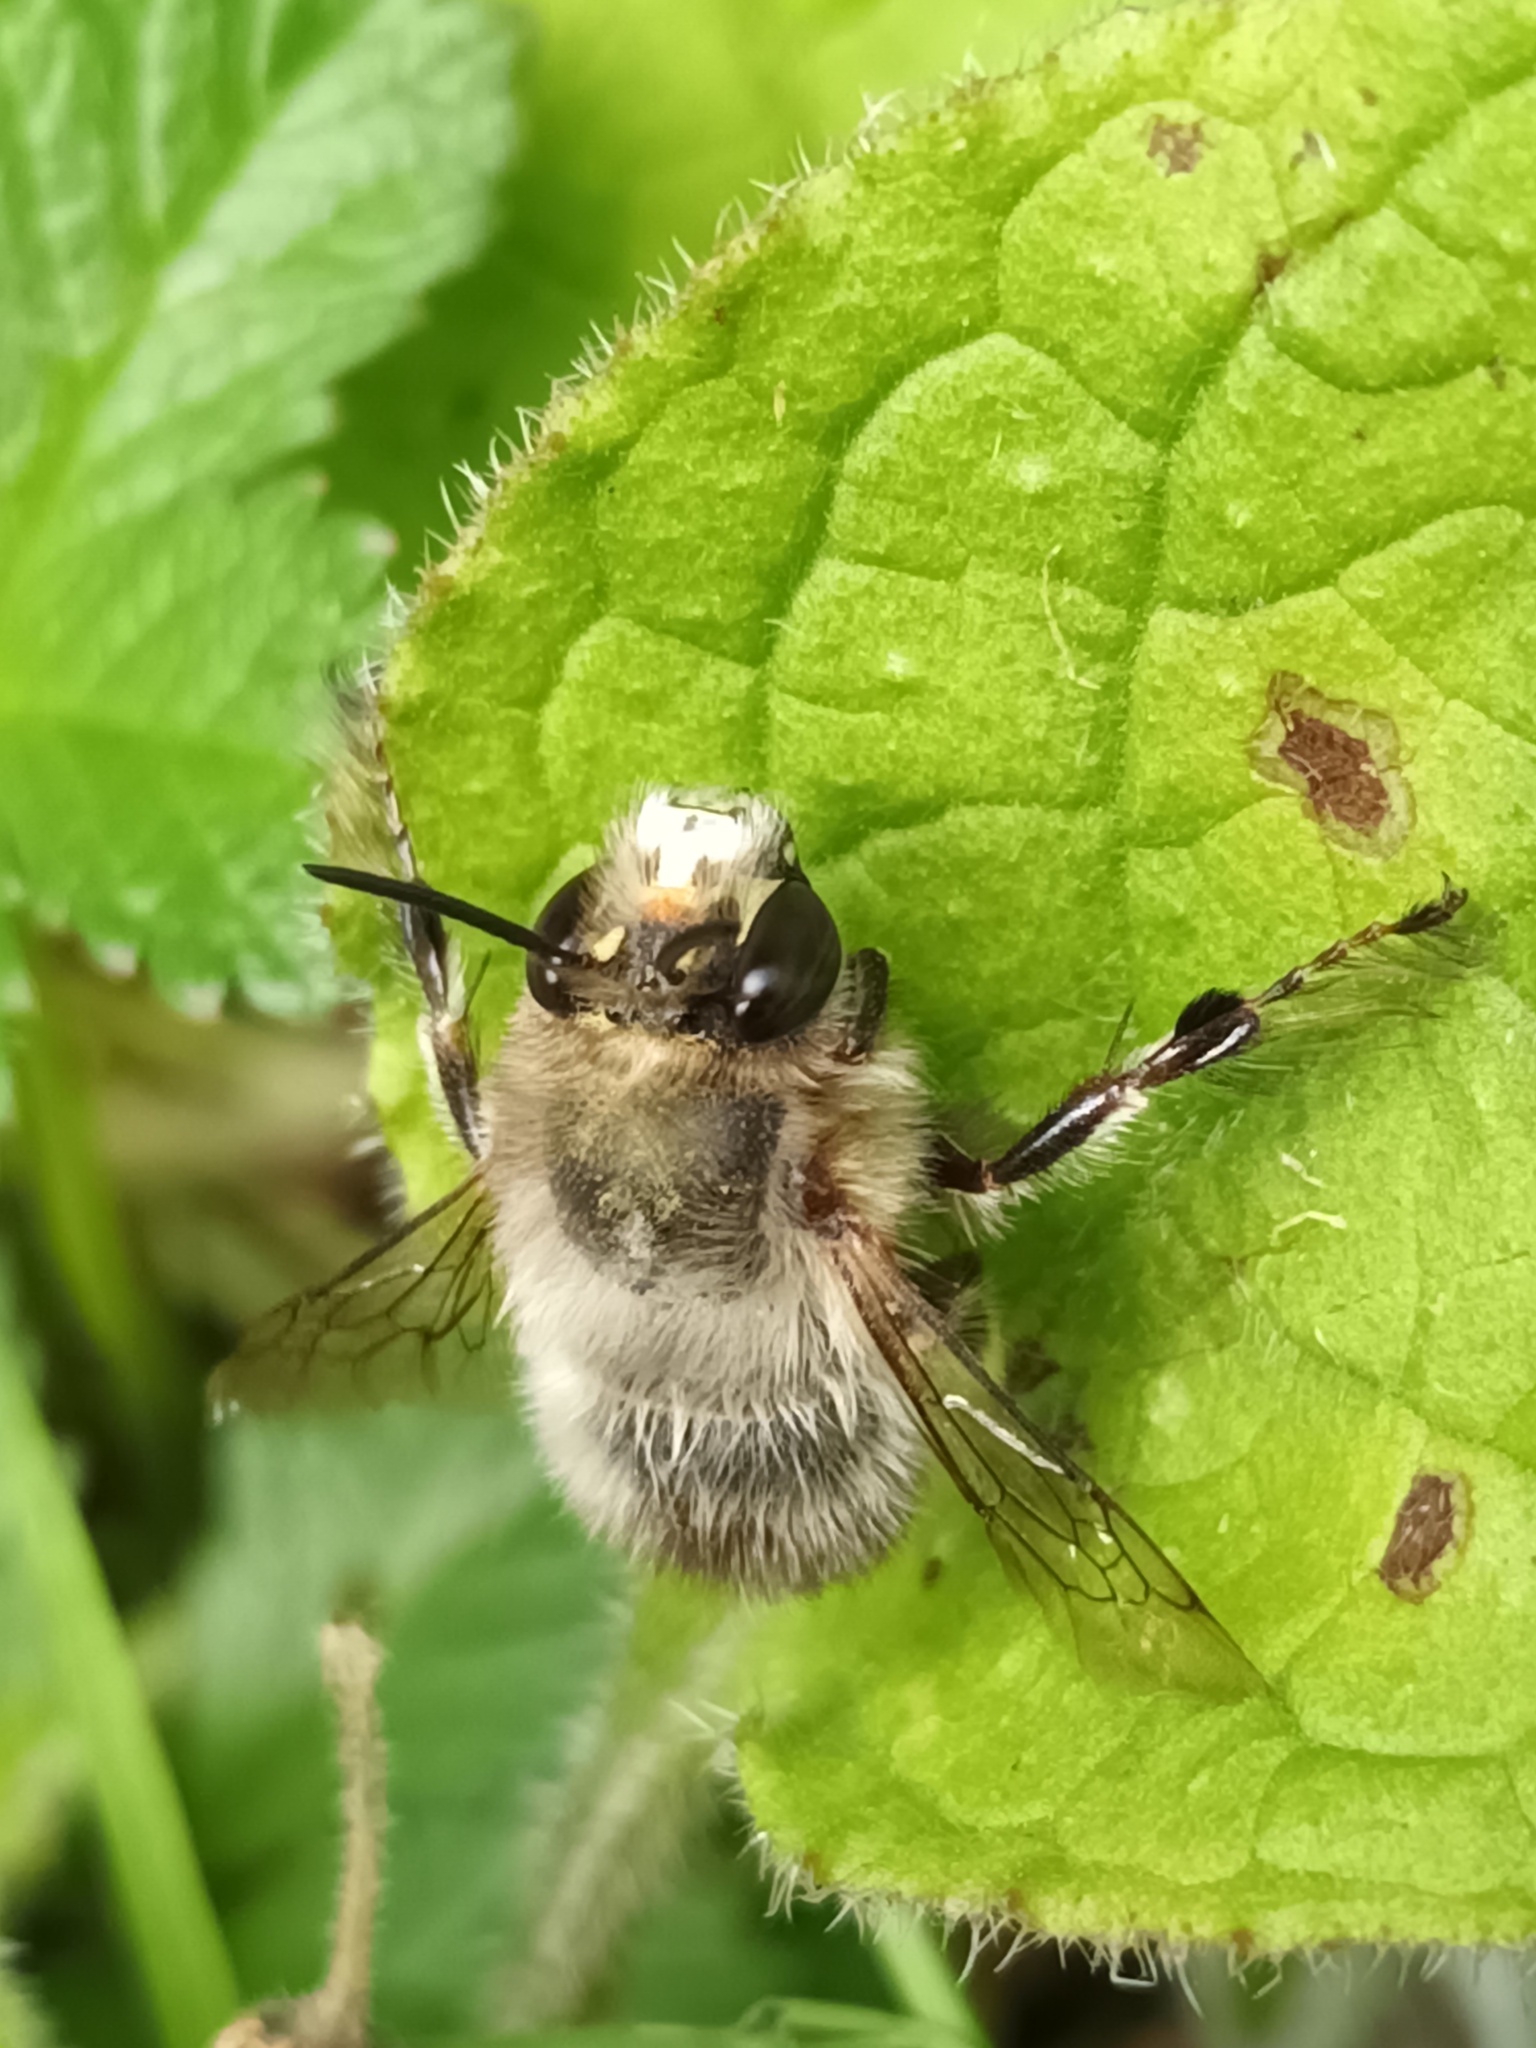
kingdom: Animalia
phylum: Arthropoda
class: Insecta
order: Hymenoptera
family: Apidae
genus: Anthophora
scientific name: Anthophora plumipes
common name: Hairy-footed flower bee
